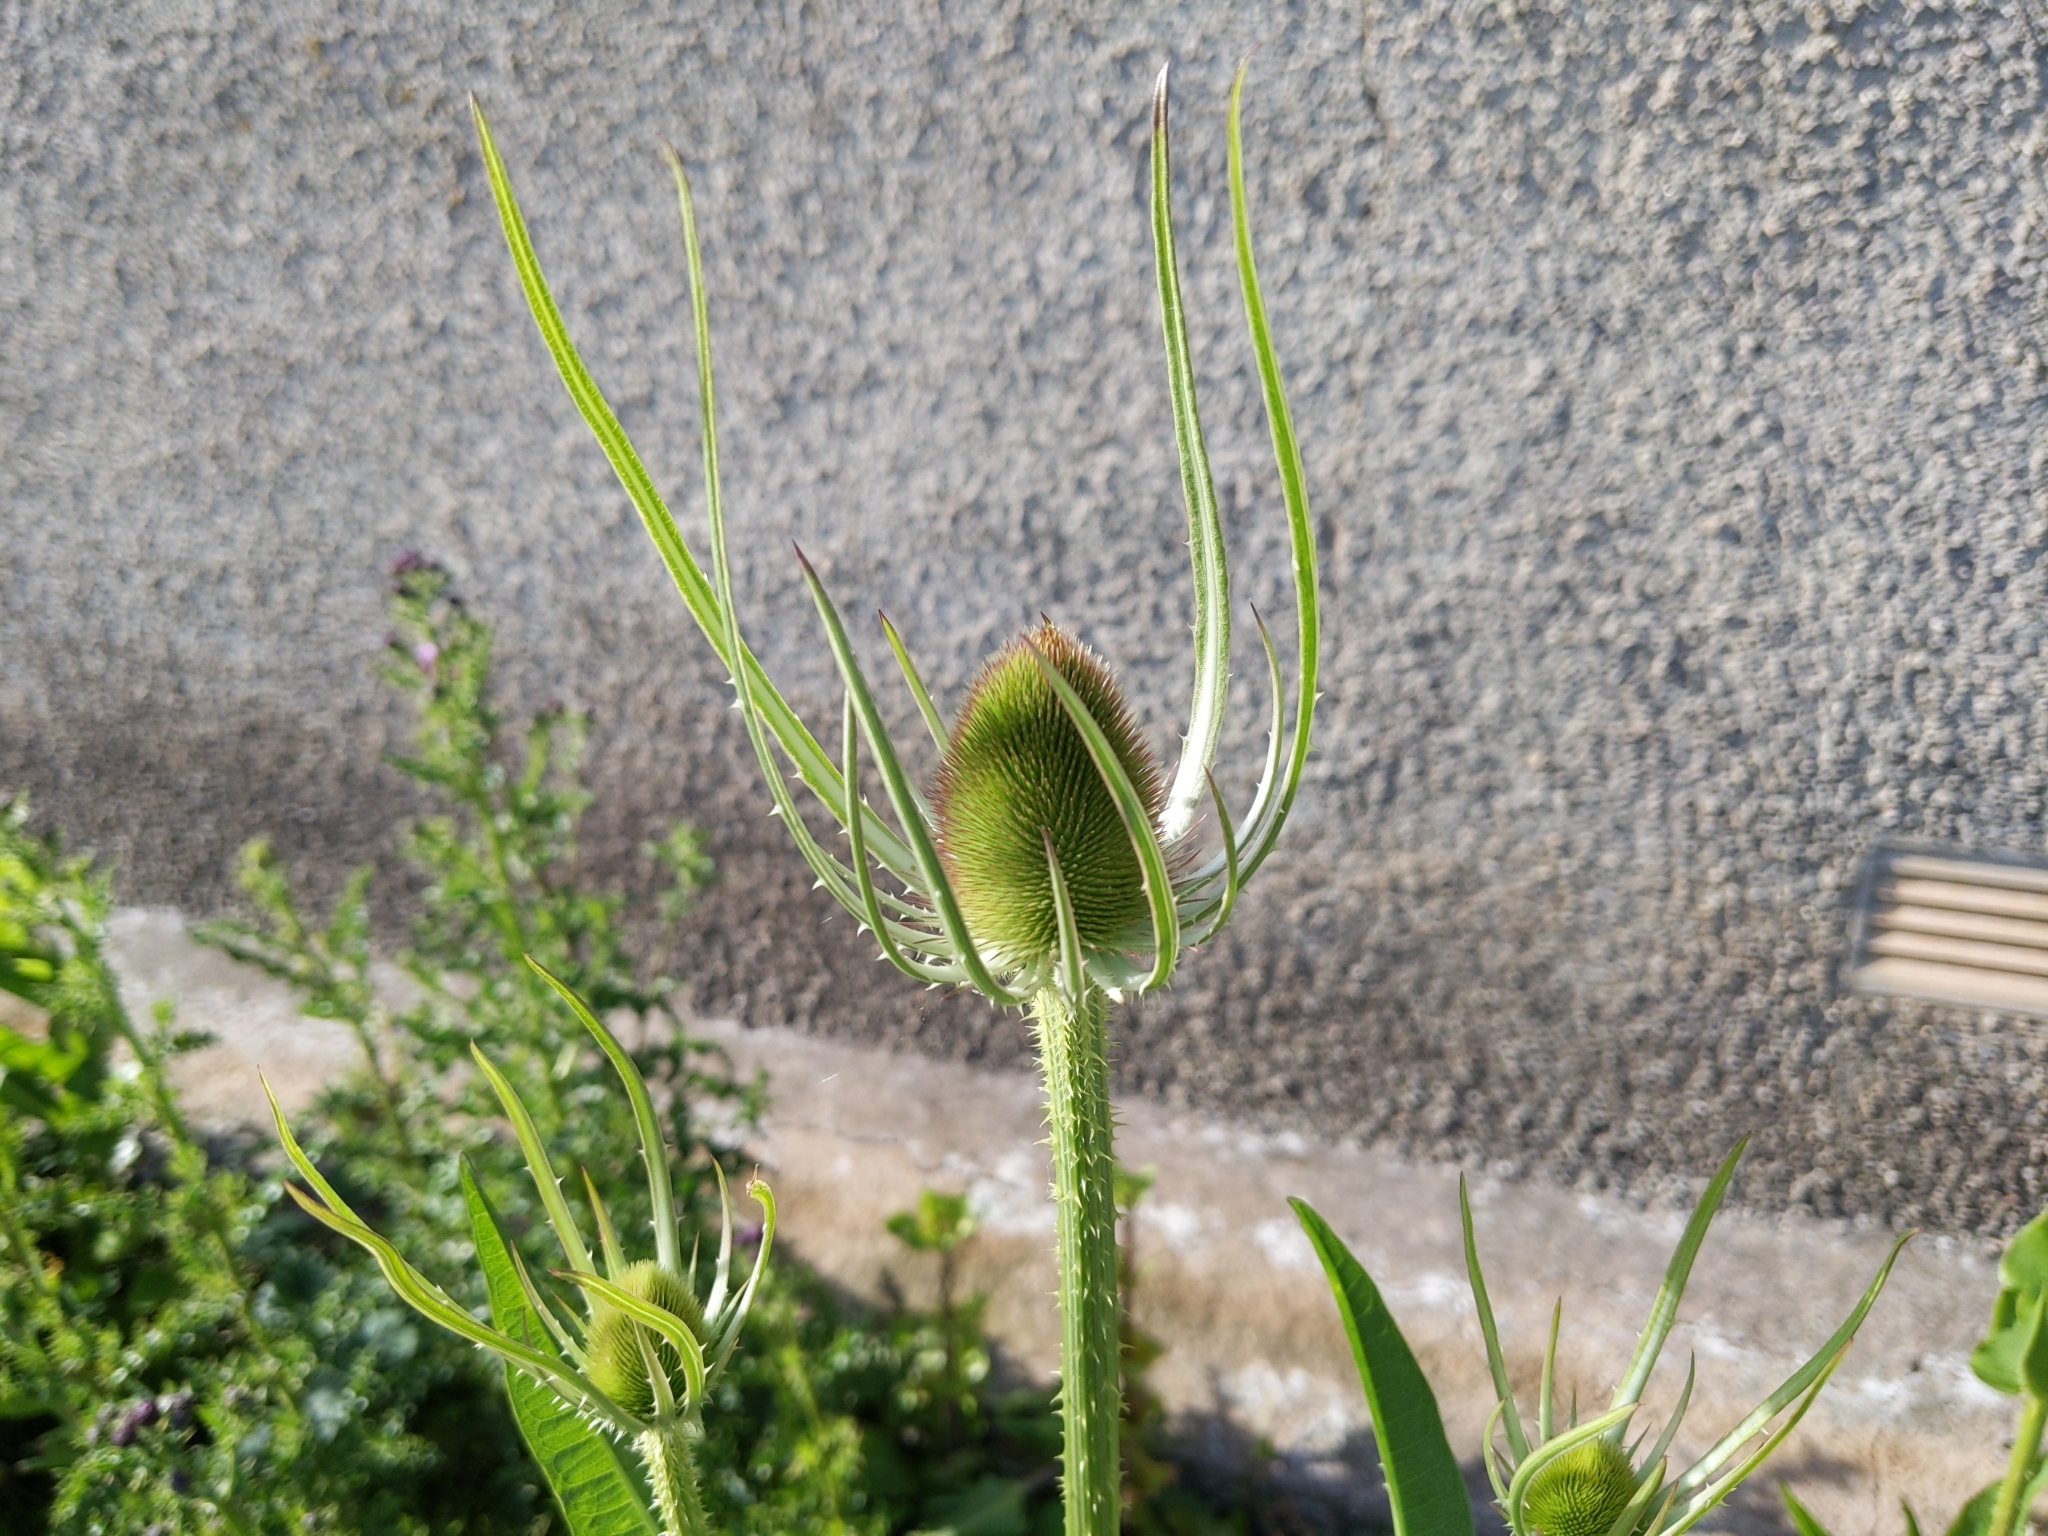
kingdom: Plantae
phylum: Tracheophyta
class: Magnoliopsida
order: Dipsacales
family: Caprifoliaceae
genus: Dipsacus
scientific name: Dipsacus fullonum
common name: Teasel
